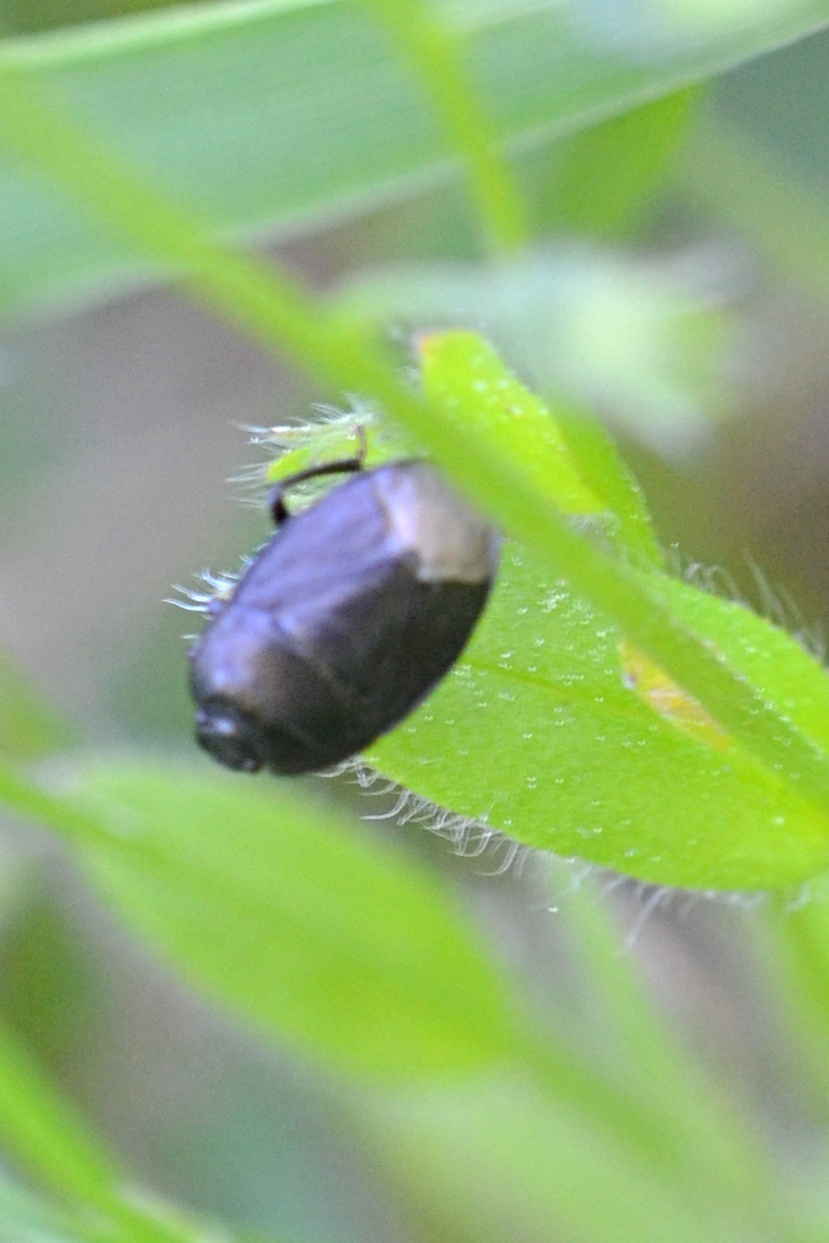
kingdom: Animalia
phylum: Arthropoda
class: Insecta
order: Hemiptera
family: Cydnidae
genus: Sehirus
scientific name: Sehirus luctuosus
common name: Forget-me-not shieldbug
